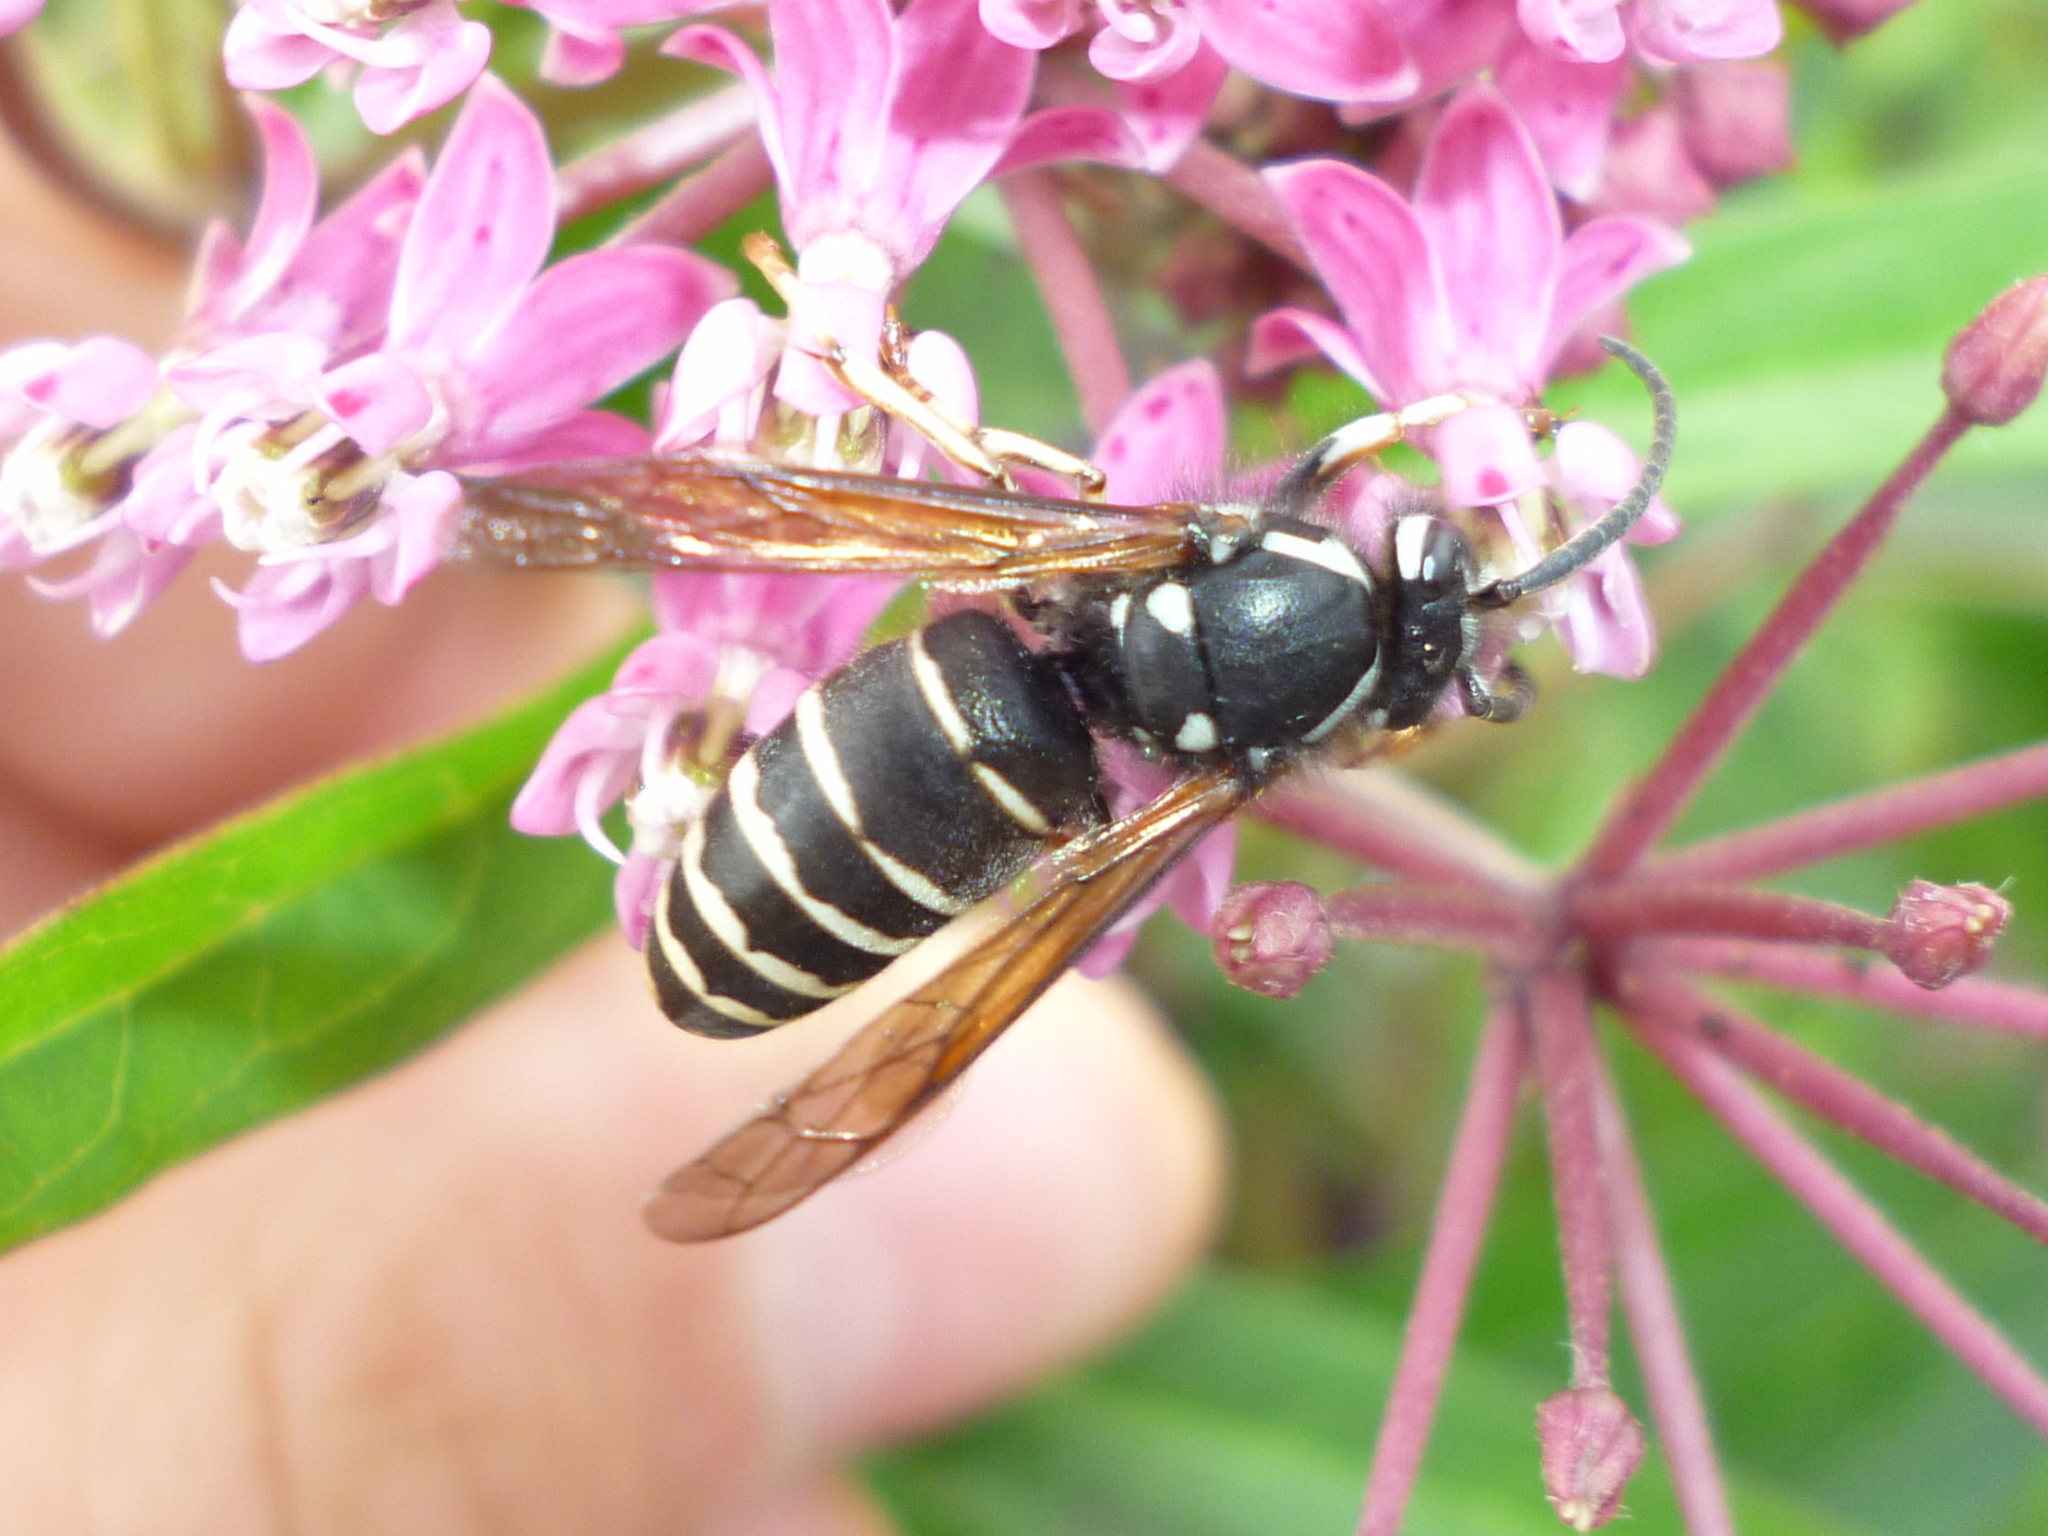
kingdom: Animalia
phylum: Arthropoda
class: Insecta
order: Hymenoptera
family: Vespidae
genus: Dolichovespula
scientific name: Dolichovespula adulterina
